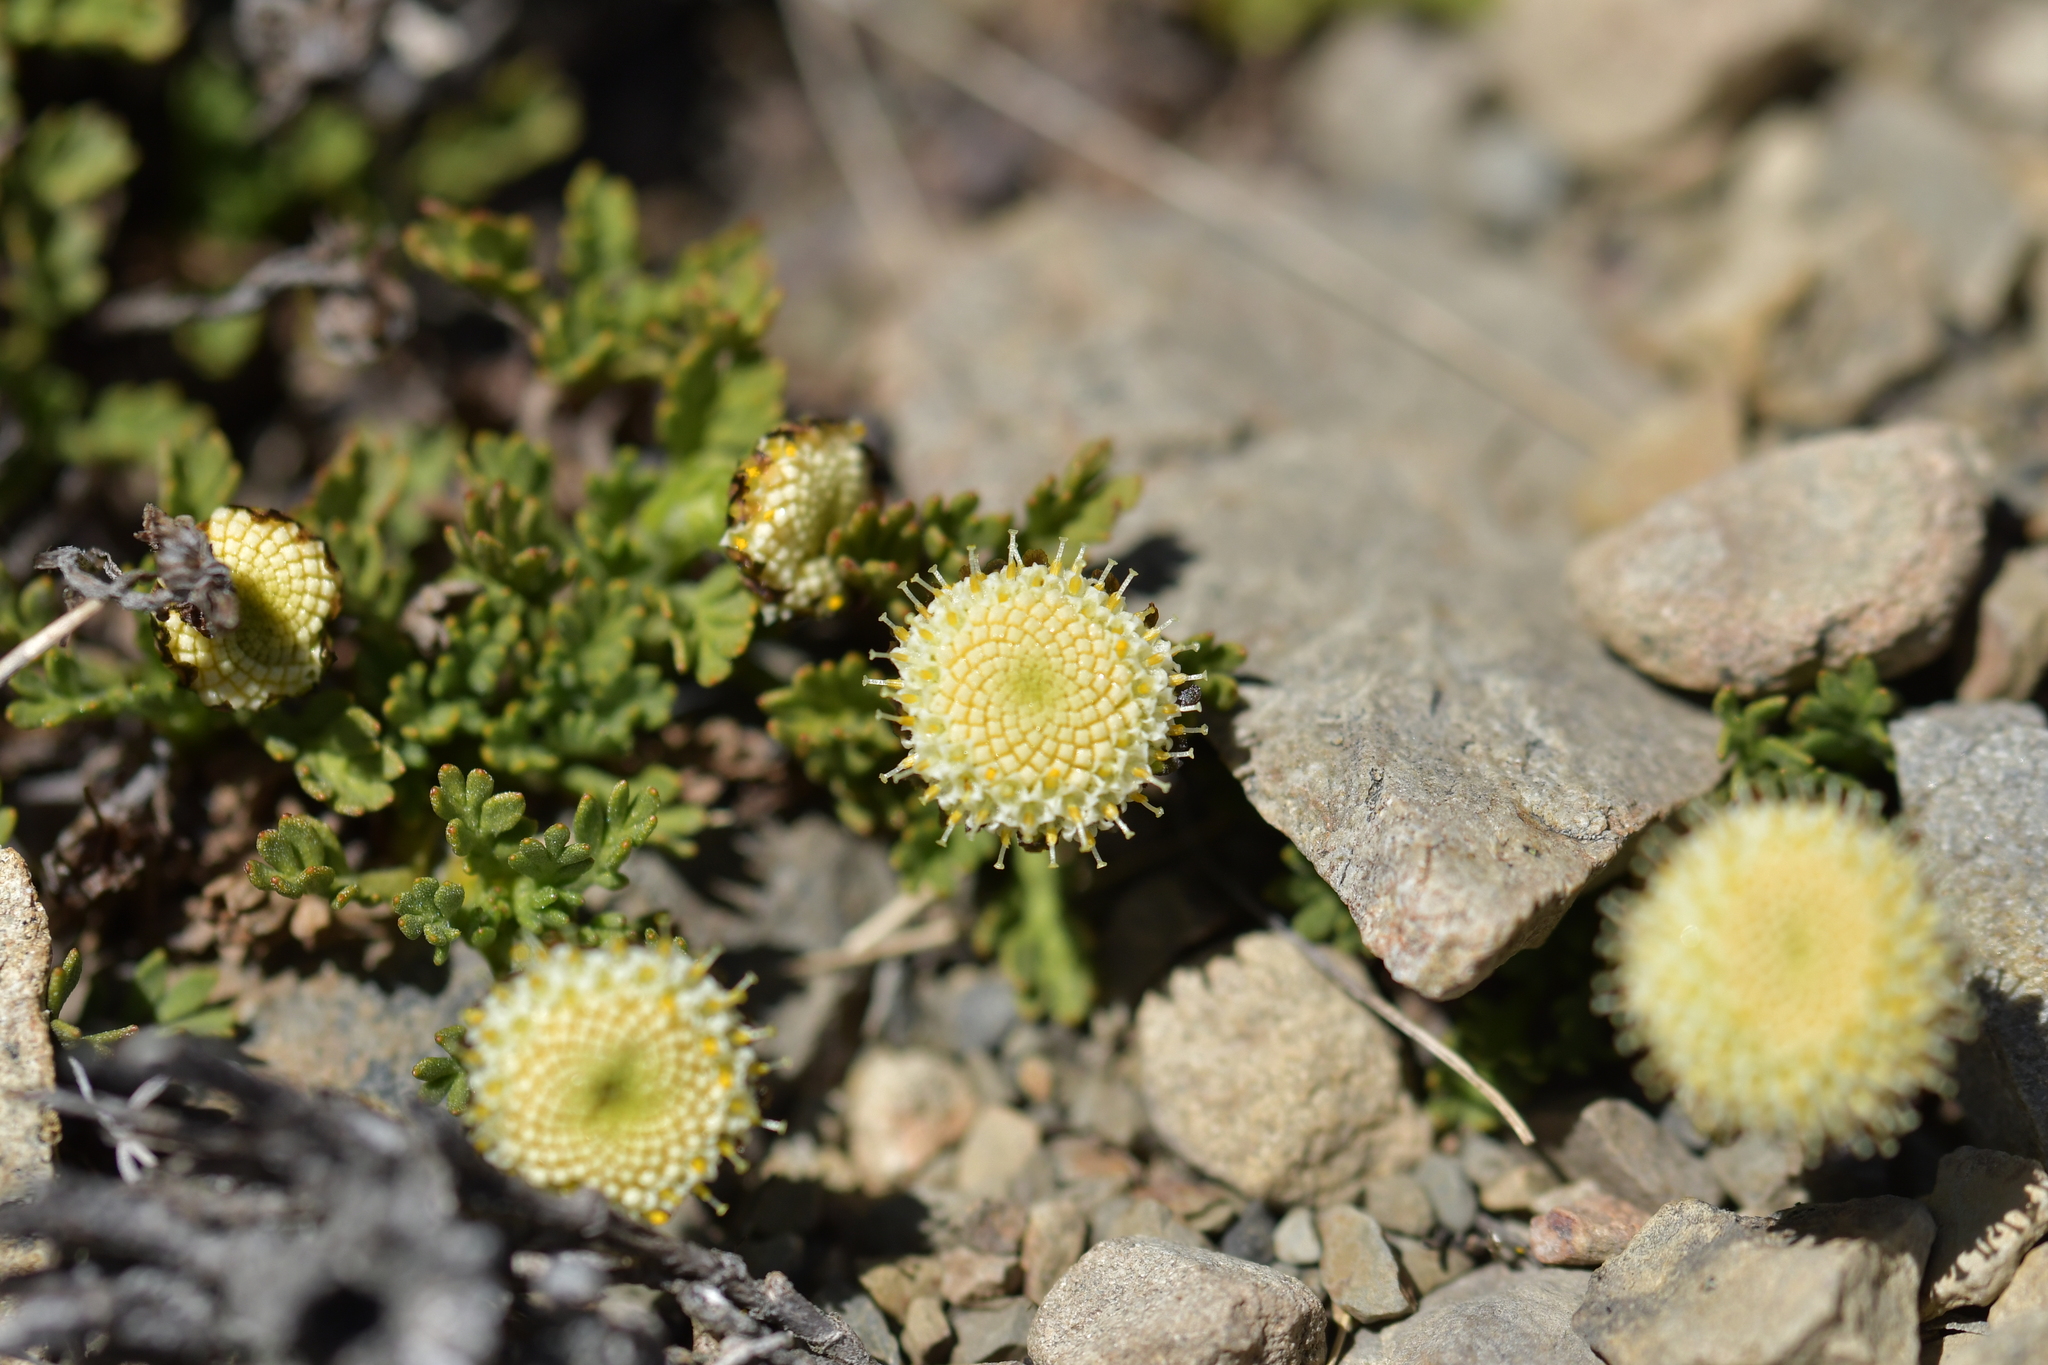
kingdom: Plantae
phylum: Tracheophyta
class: Magnoliopsida
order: Asterales
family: Asteraceae
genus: Leptinella
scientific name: Leptinella pyrethrifolia
